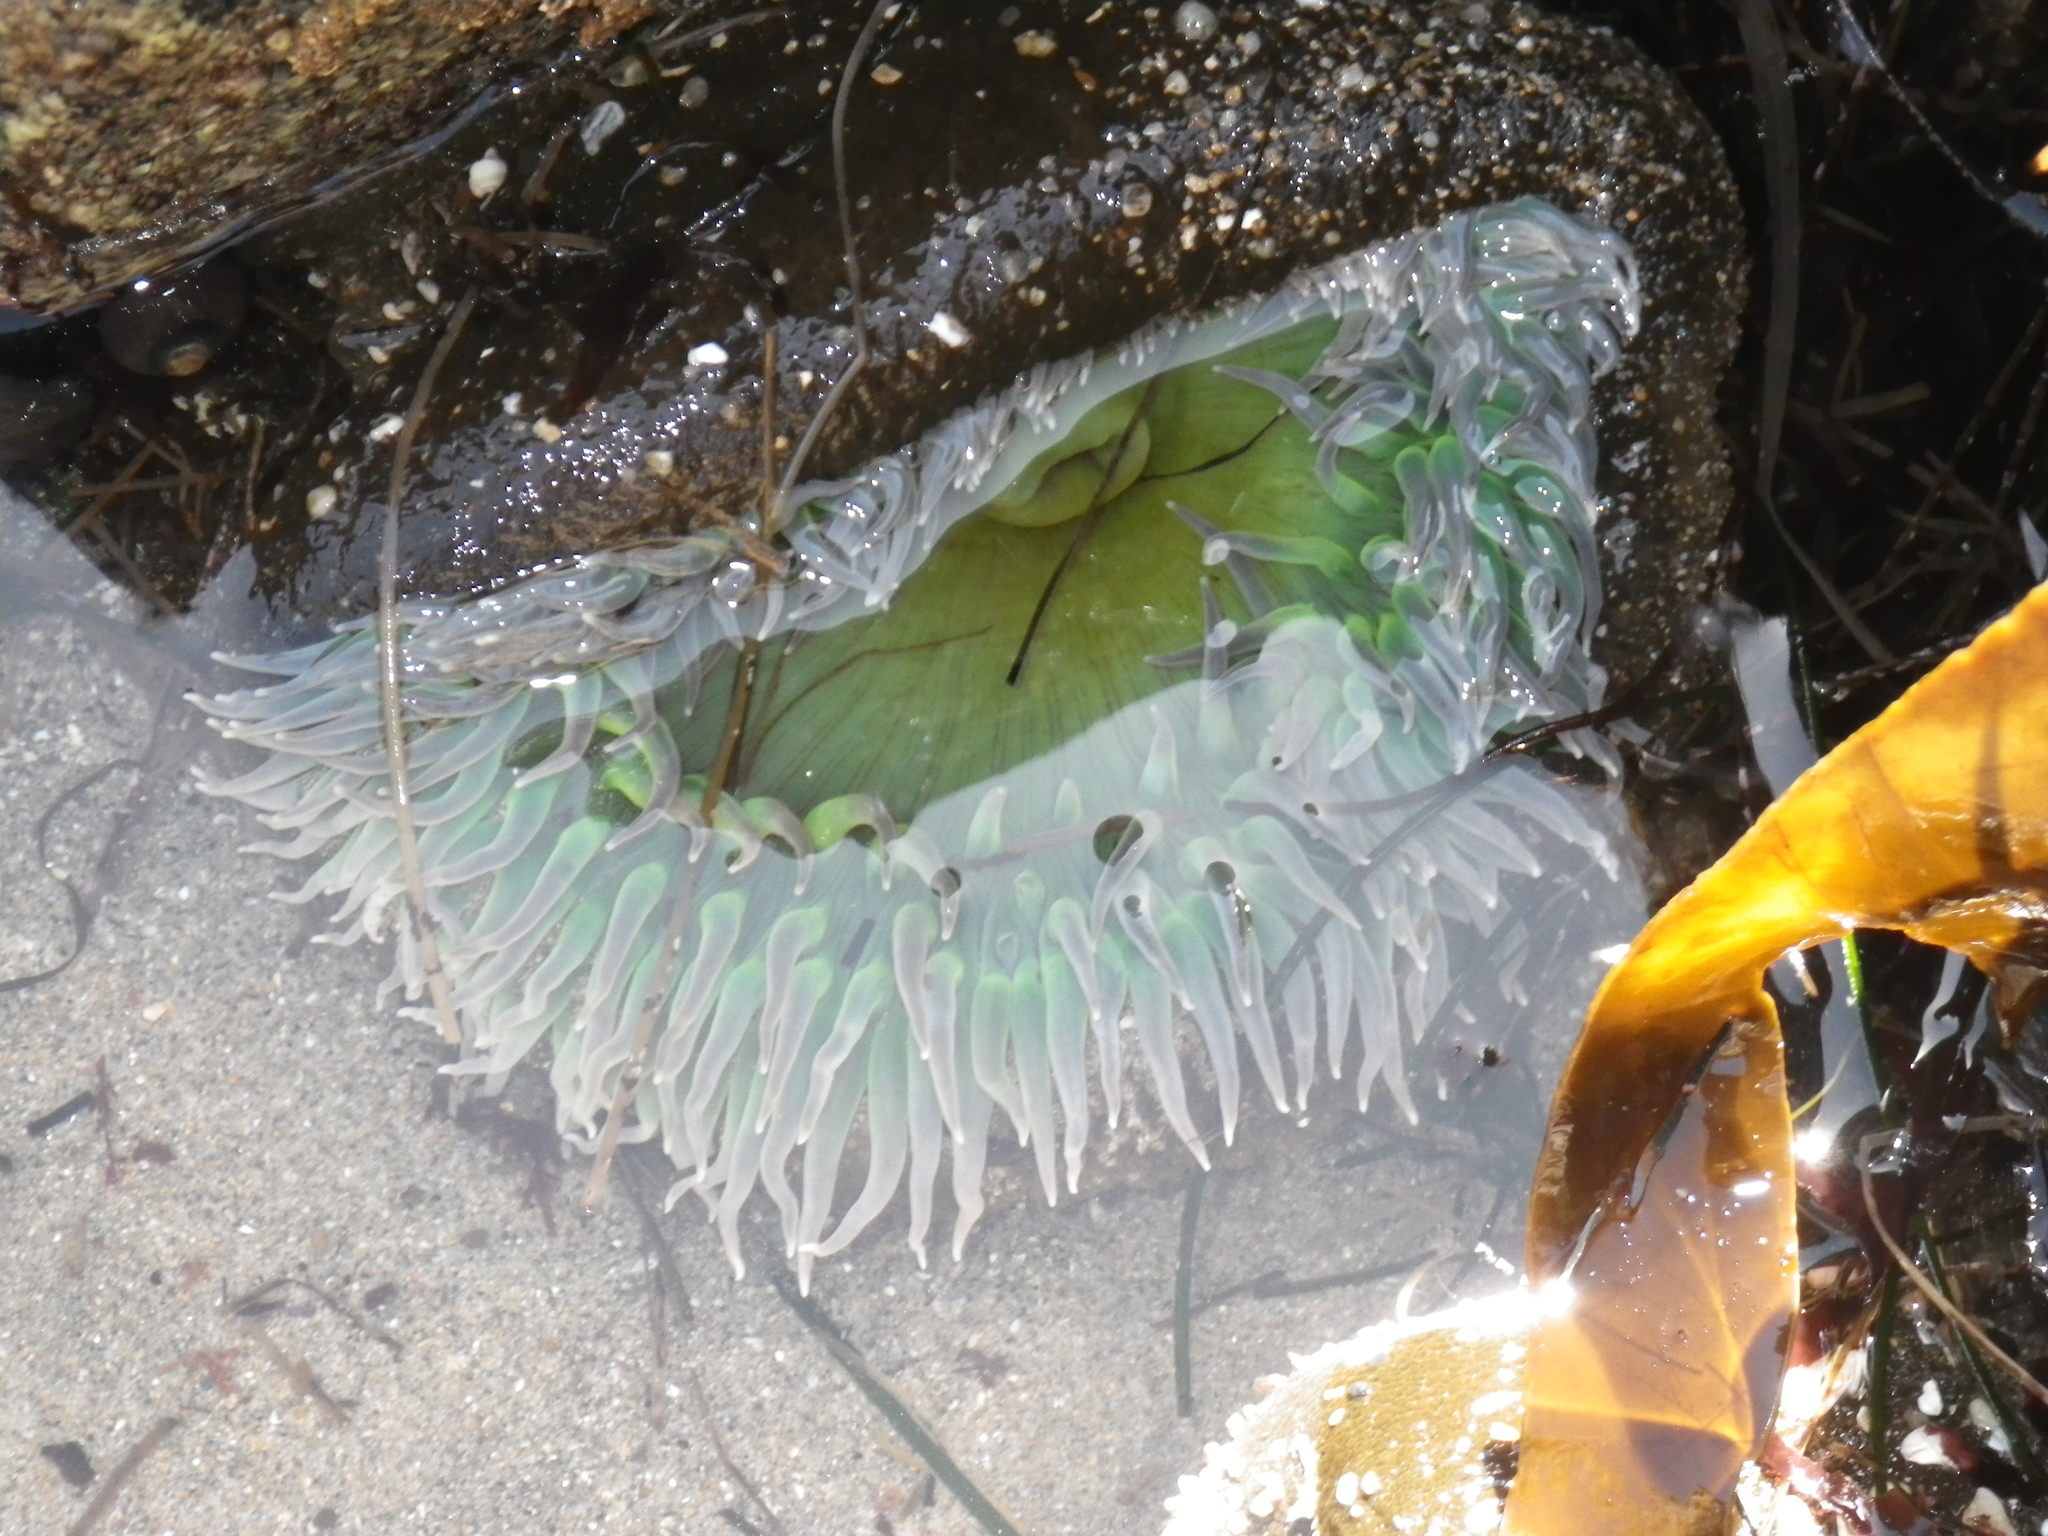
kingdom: Animalia
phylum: Cnidaria
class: Anthozoa
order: Actiniaria
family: Actiniidae
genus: Anthopleura
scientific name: Anthopleura xanthogrammica
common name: Giant green anemone
